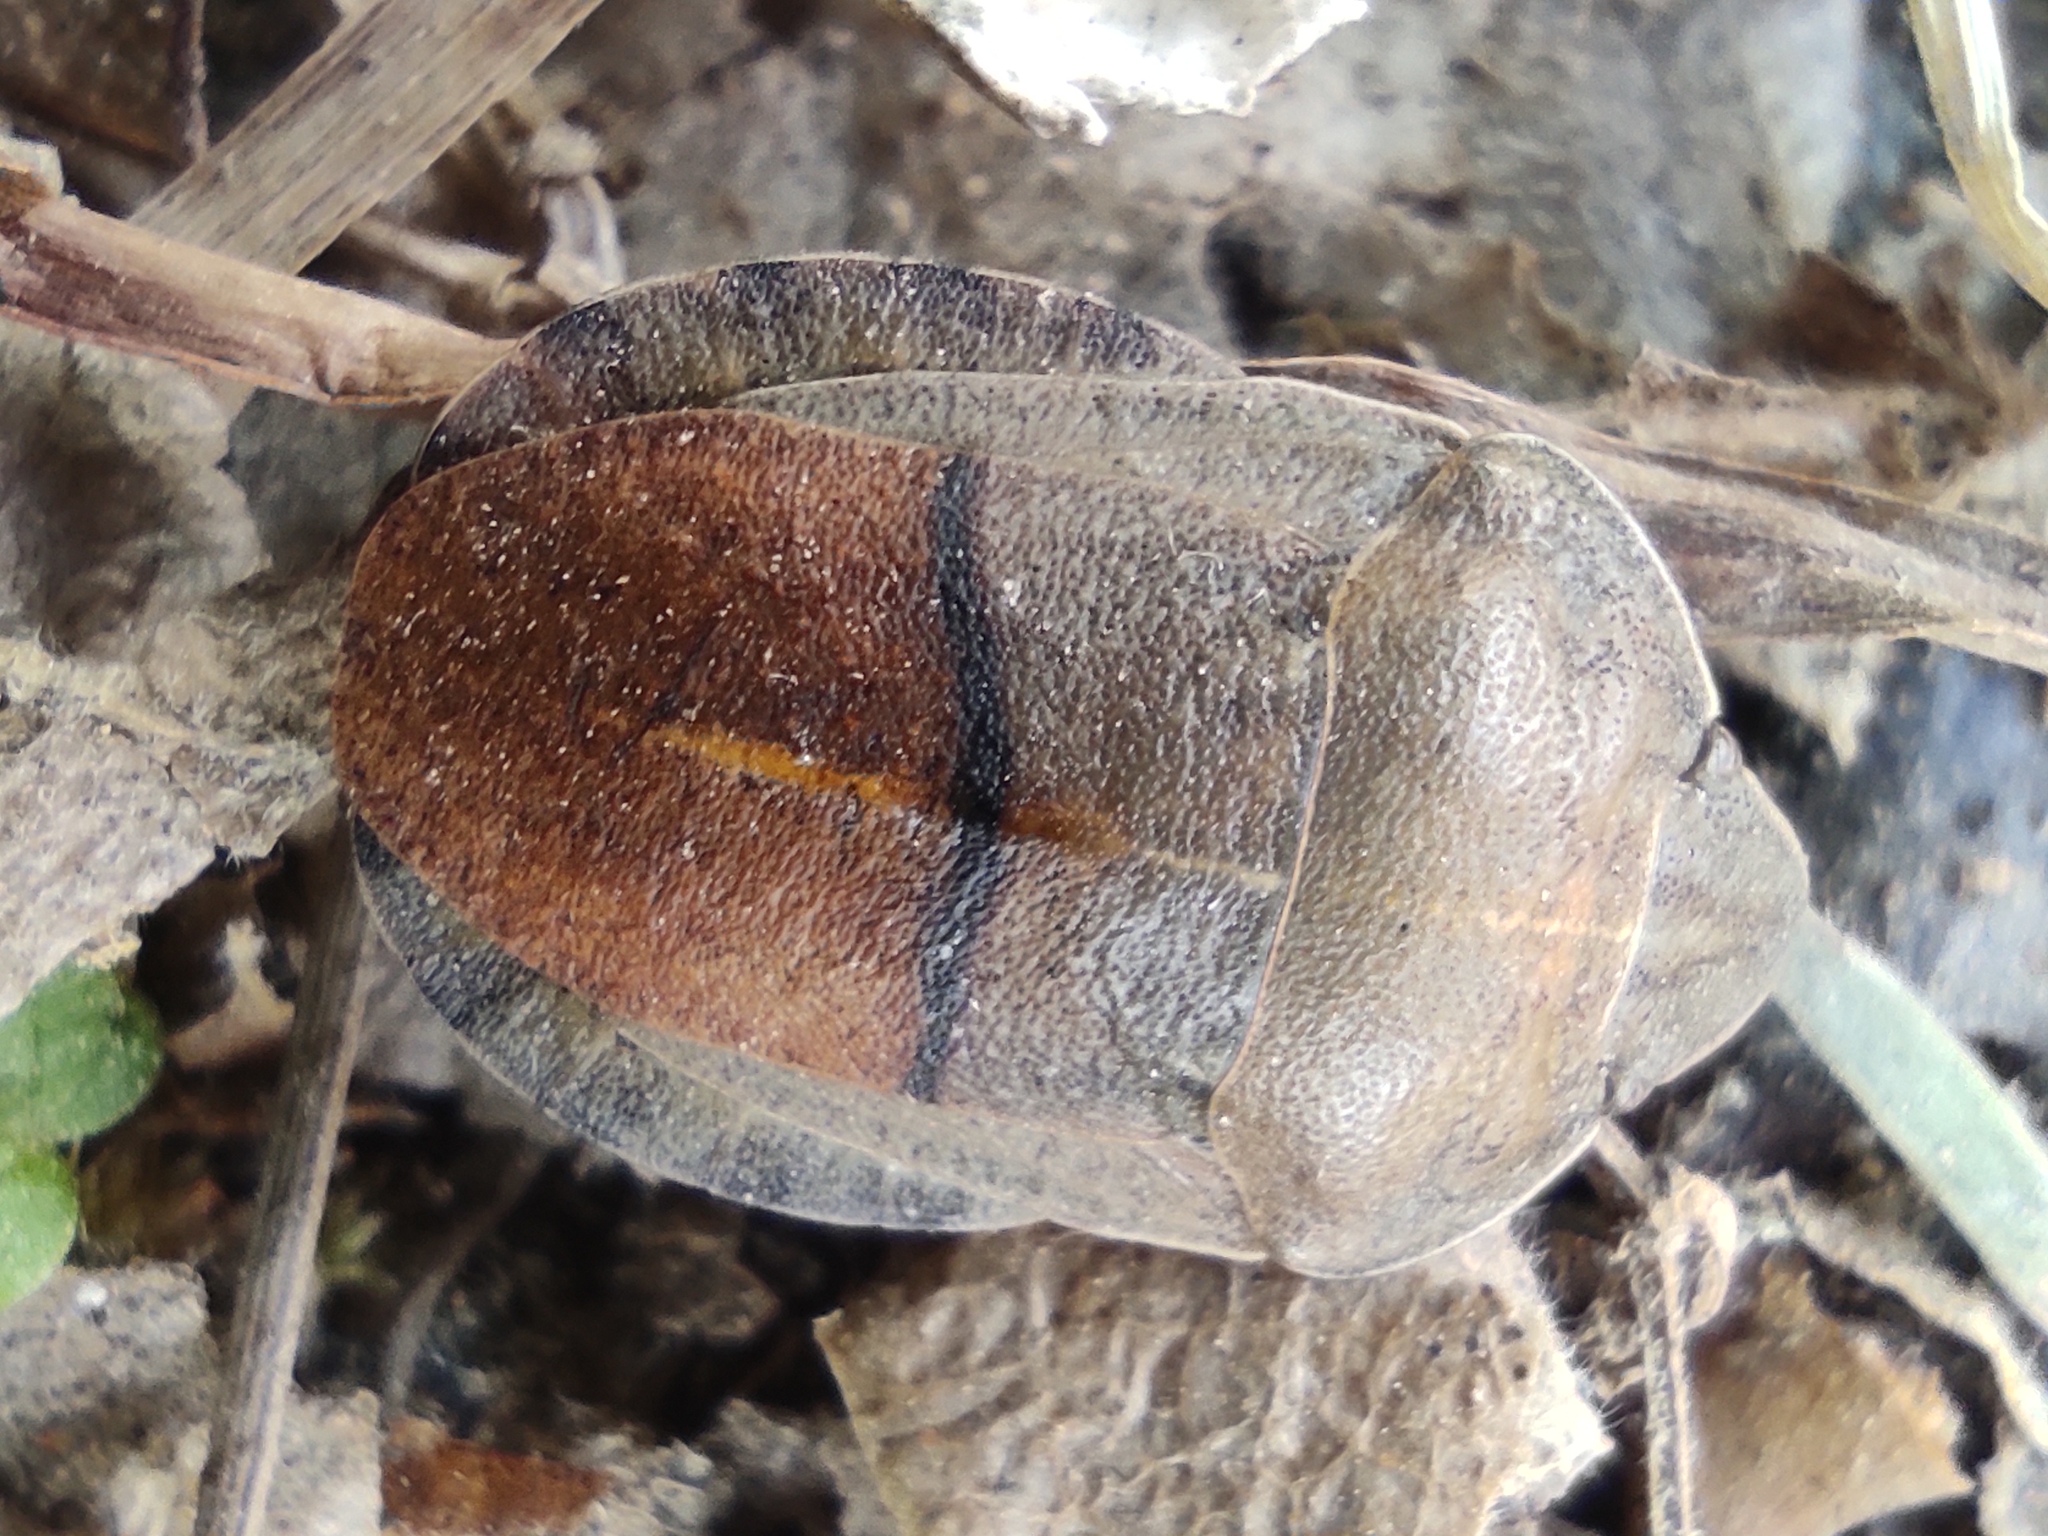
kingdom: Animalia
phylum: Arthropoda
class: Insecta
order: Hemiptera
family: Scutelleridae
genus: Eurygaster
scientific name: Eurygaster austriaca
